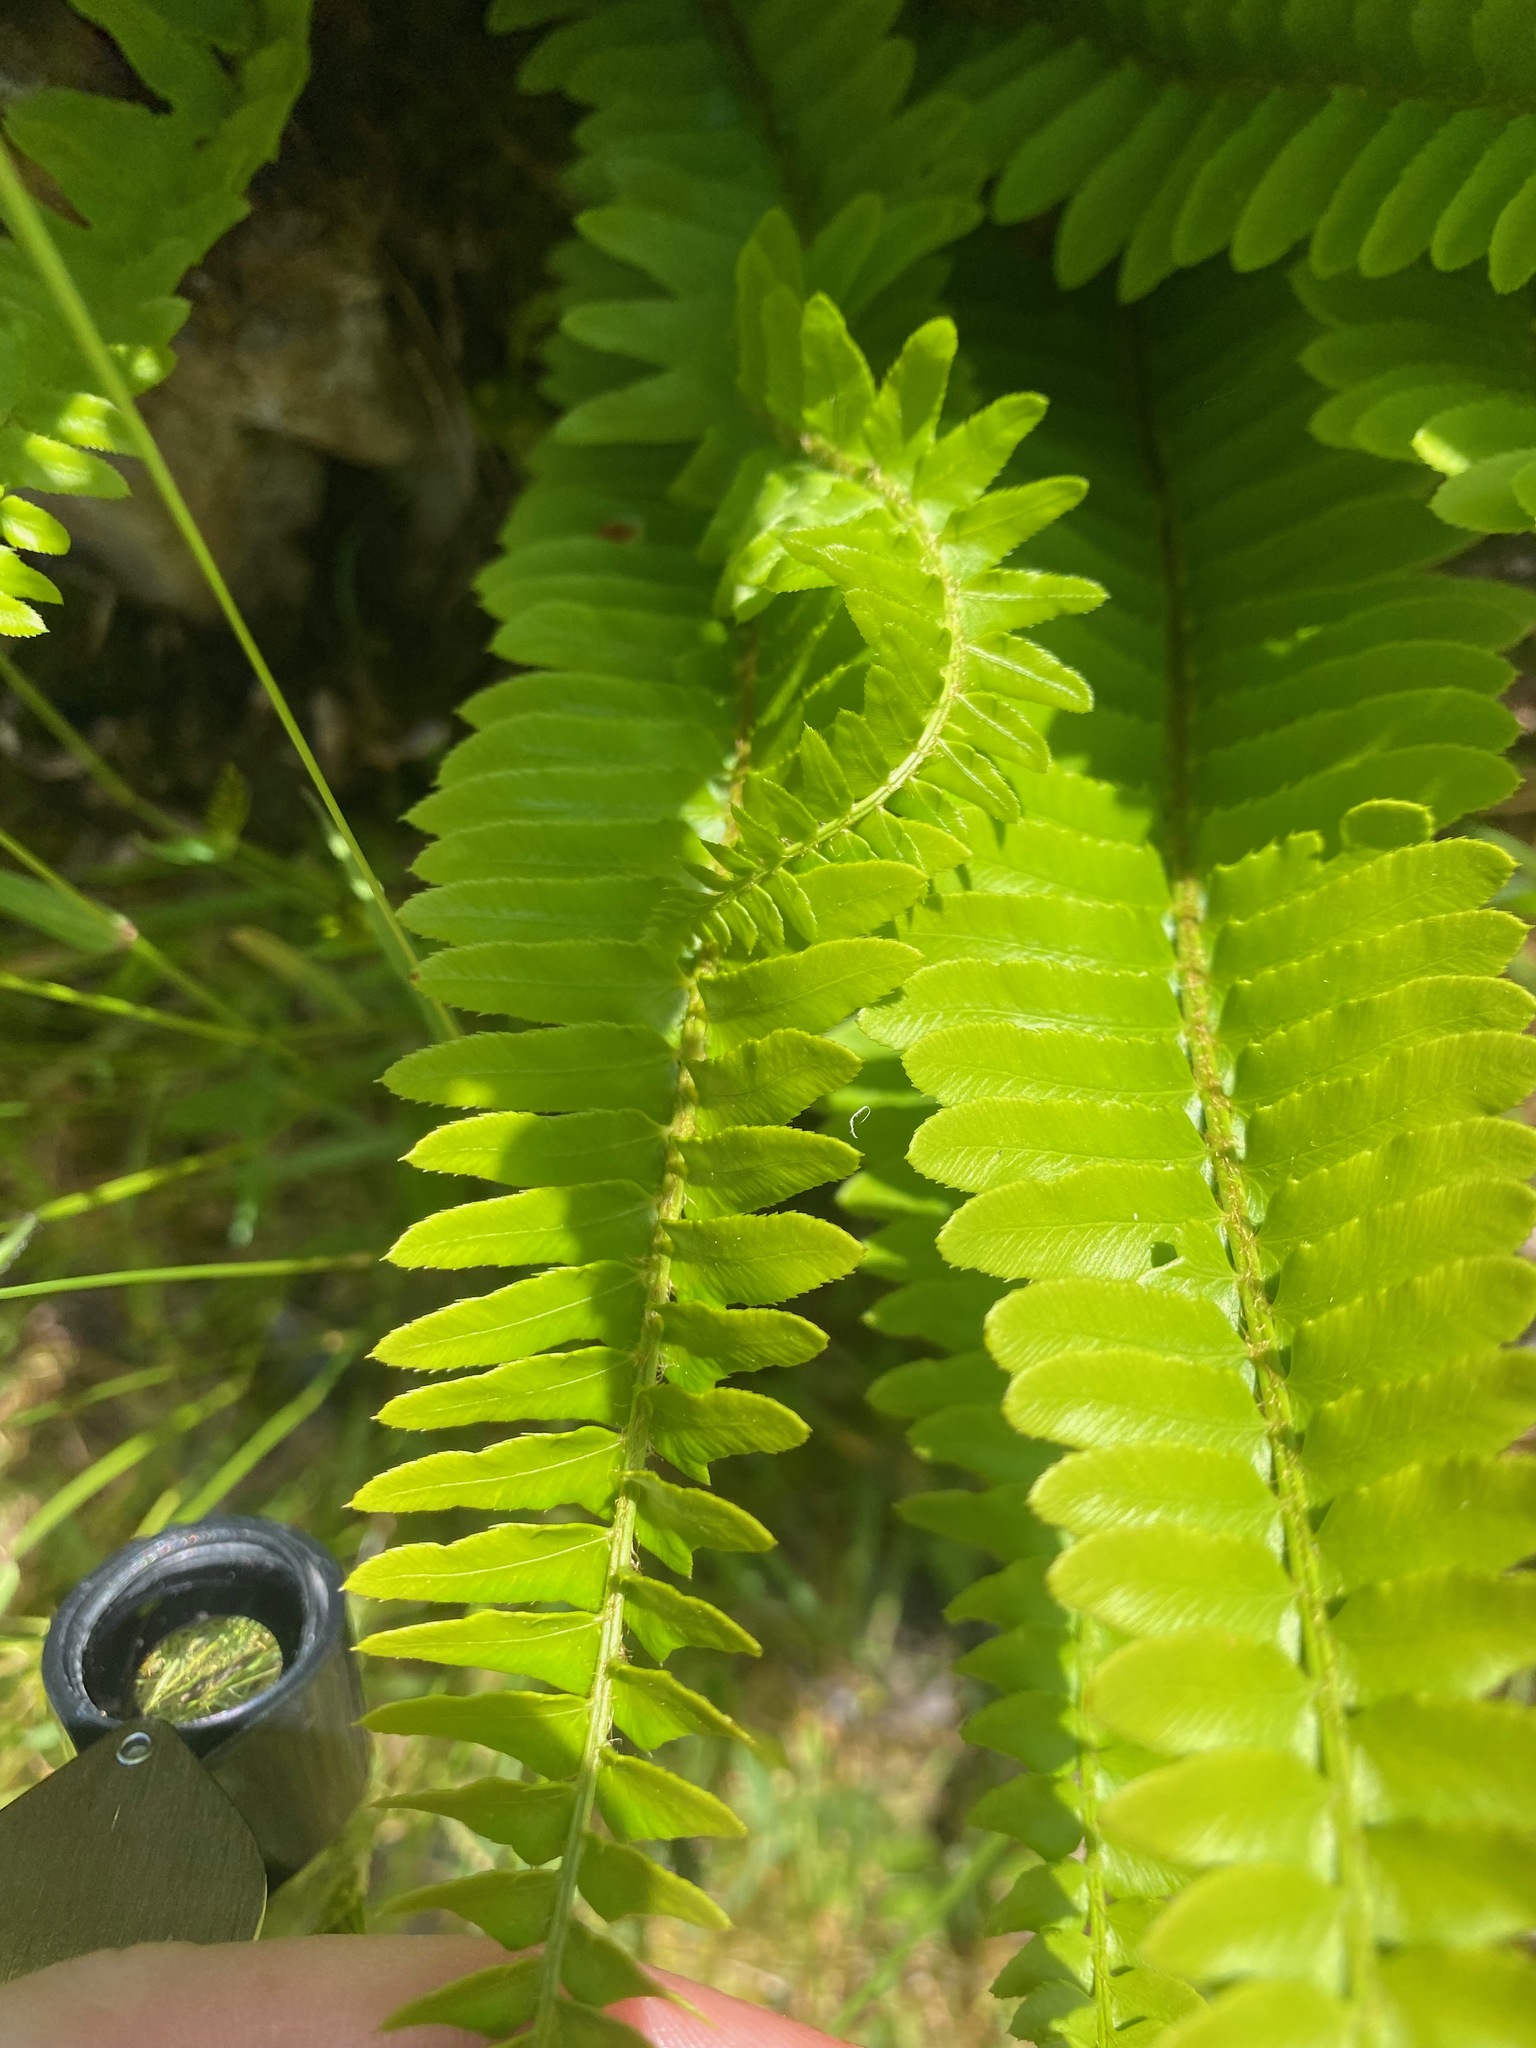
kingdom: Plantae
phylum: Tracheophyta
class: Polypodiopsida
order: Polypodiales
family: Dryopteridaceae
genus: Polystichum
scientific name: Polystichum imbricans
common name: Dwarf western sword fern
